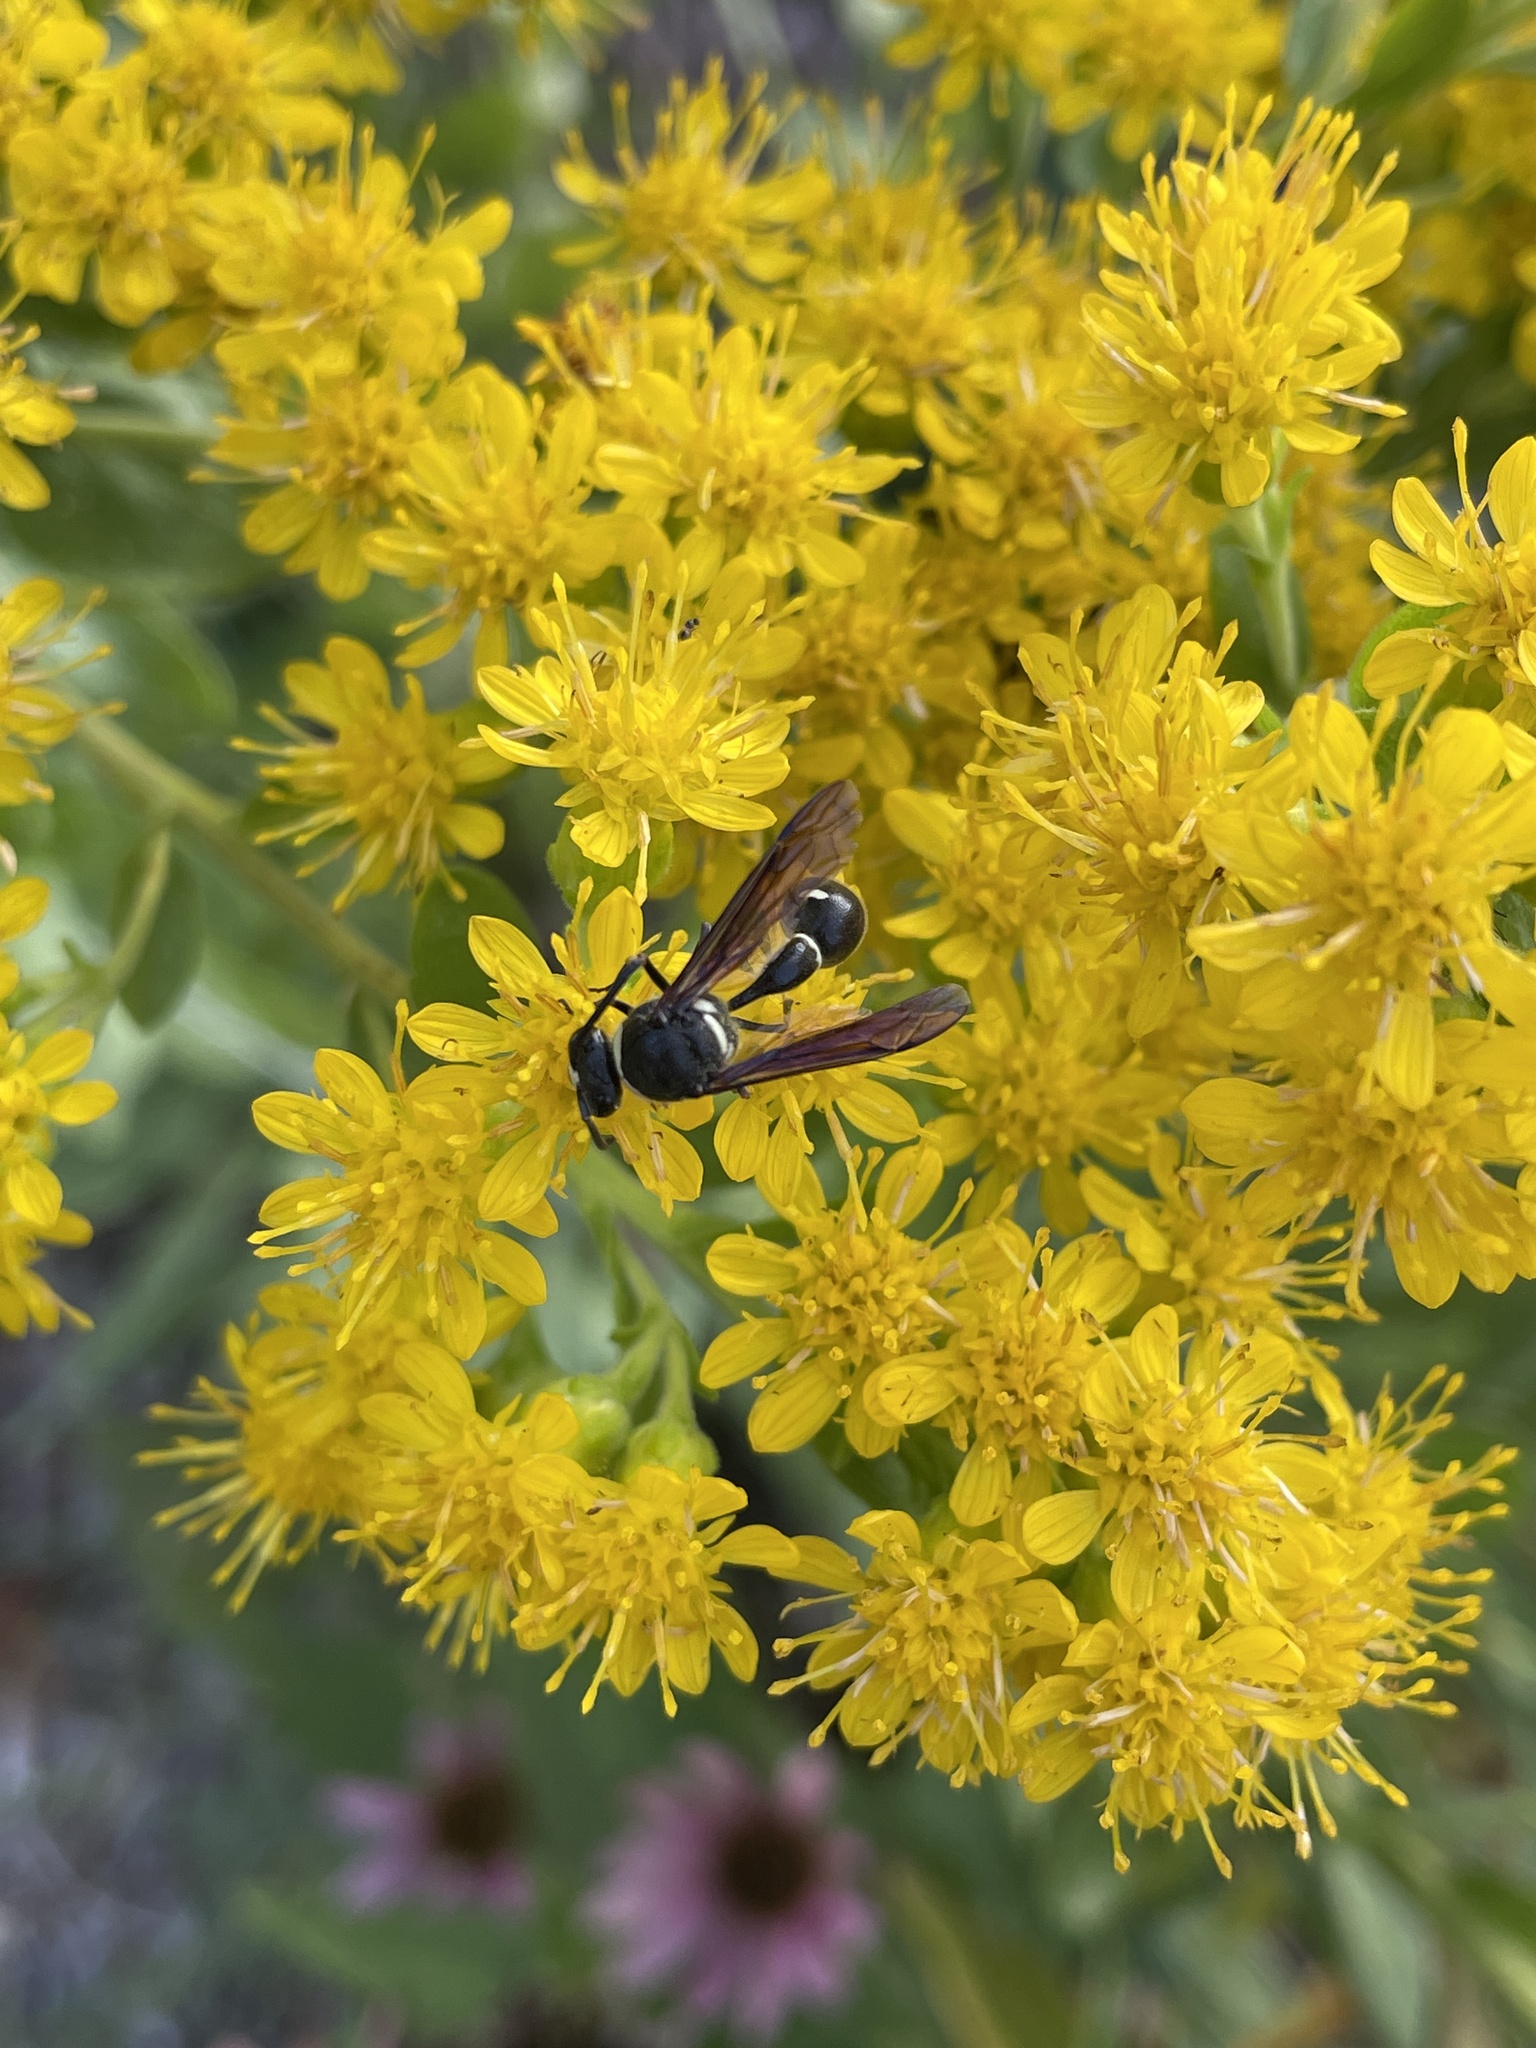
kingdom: Animalia
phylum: Arthropoda
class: Insecta
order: Hymenoptera
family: Vespidae
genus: Eumenes
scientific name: Eumenes fraternus
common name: Fraternal potter wasp
